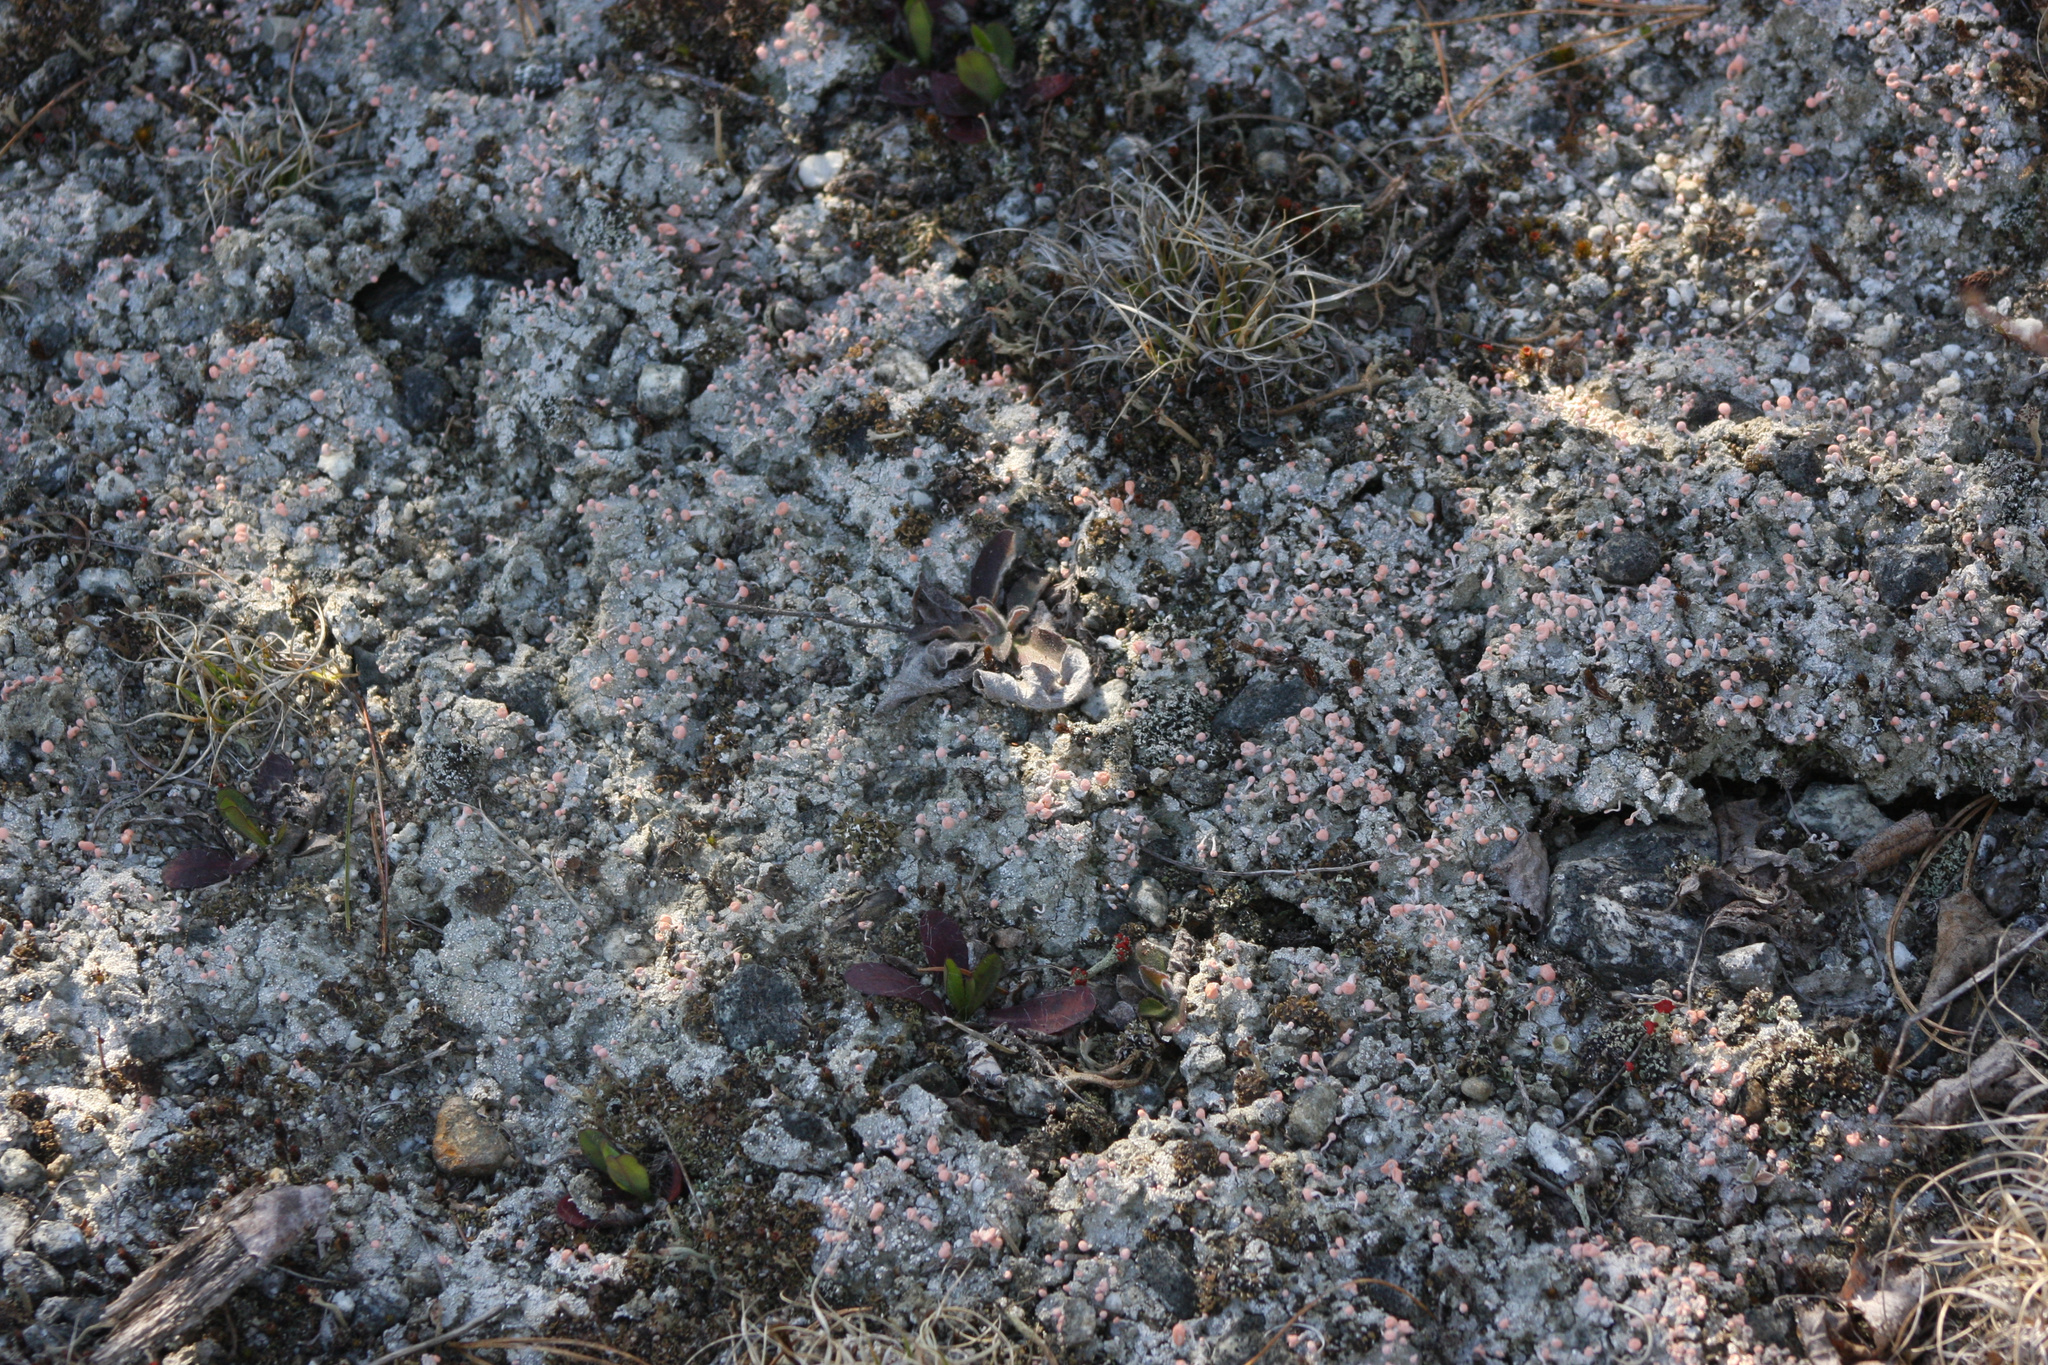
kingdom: Fungi
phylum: Ascomycota
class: Lecanoromycetes
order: Pertusariales
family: Icmadophilaceae
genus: Dibaeis
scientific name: Dibaeis baeomyces
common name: Pink earth lichen
